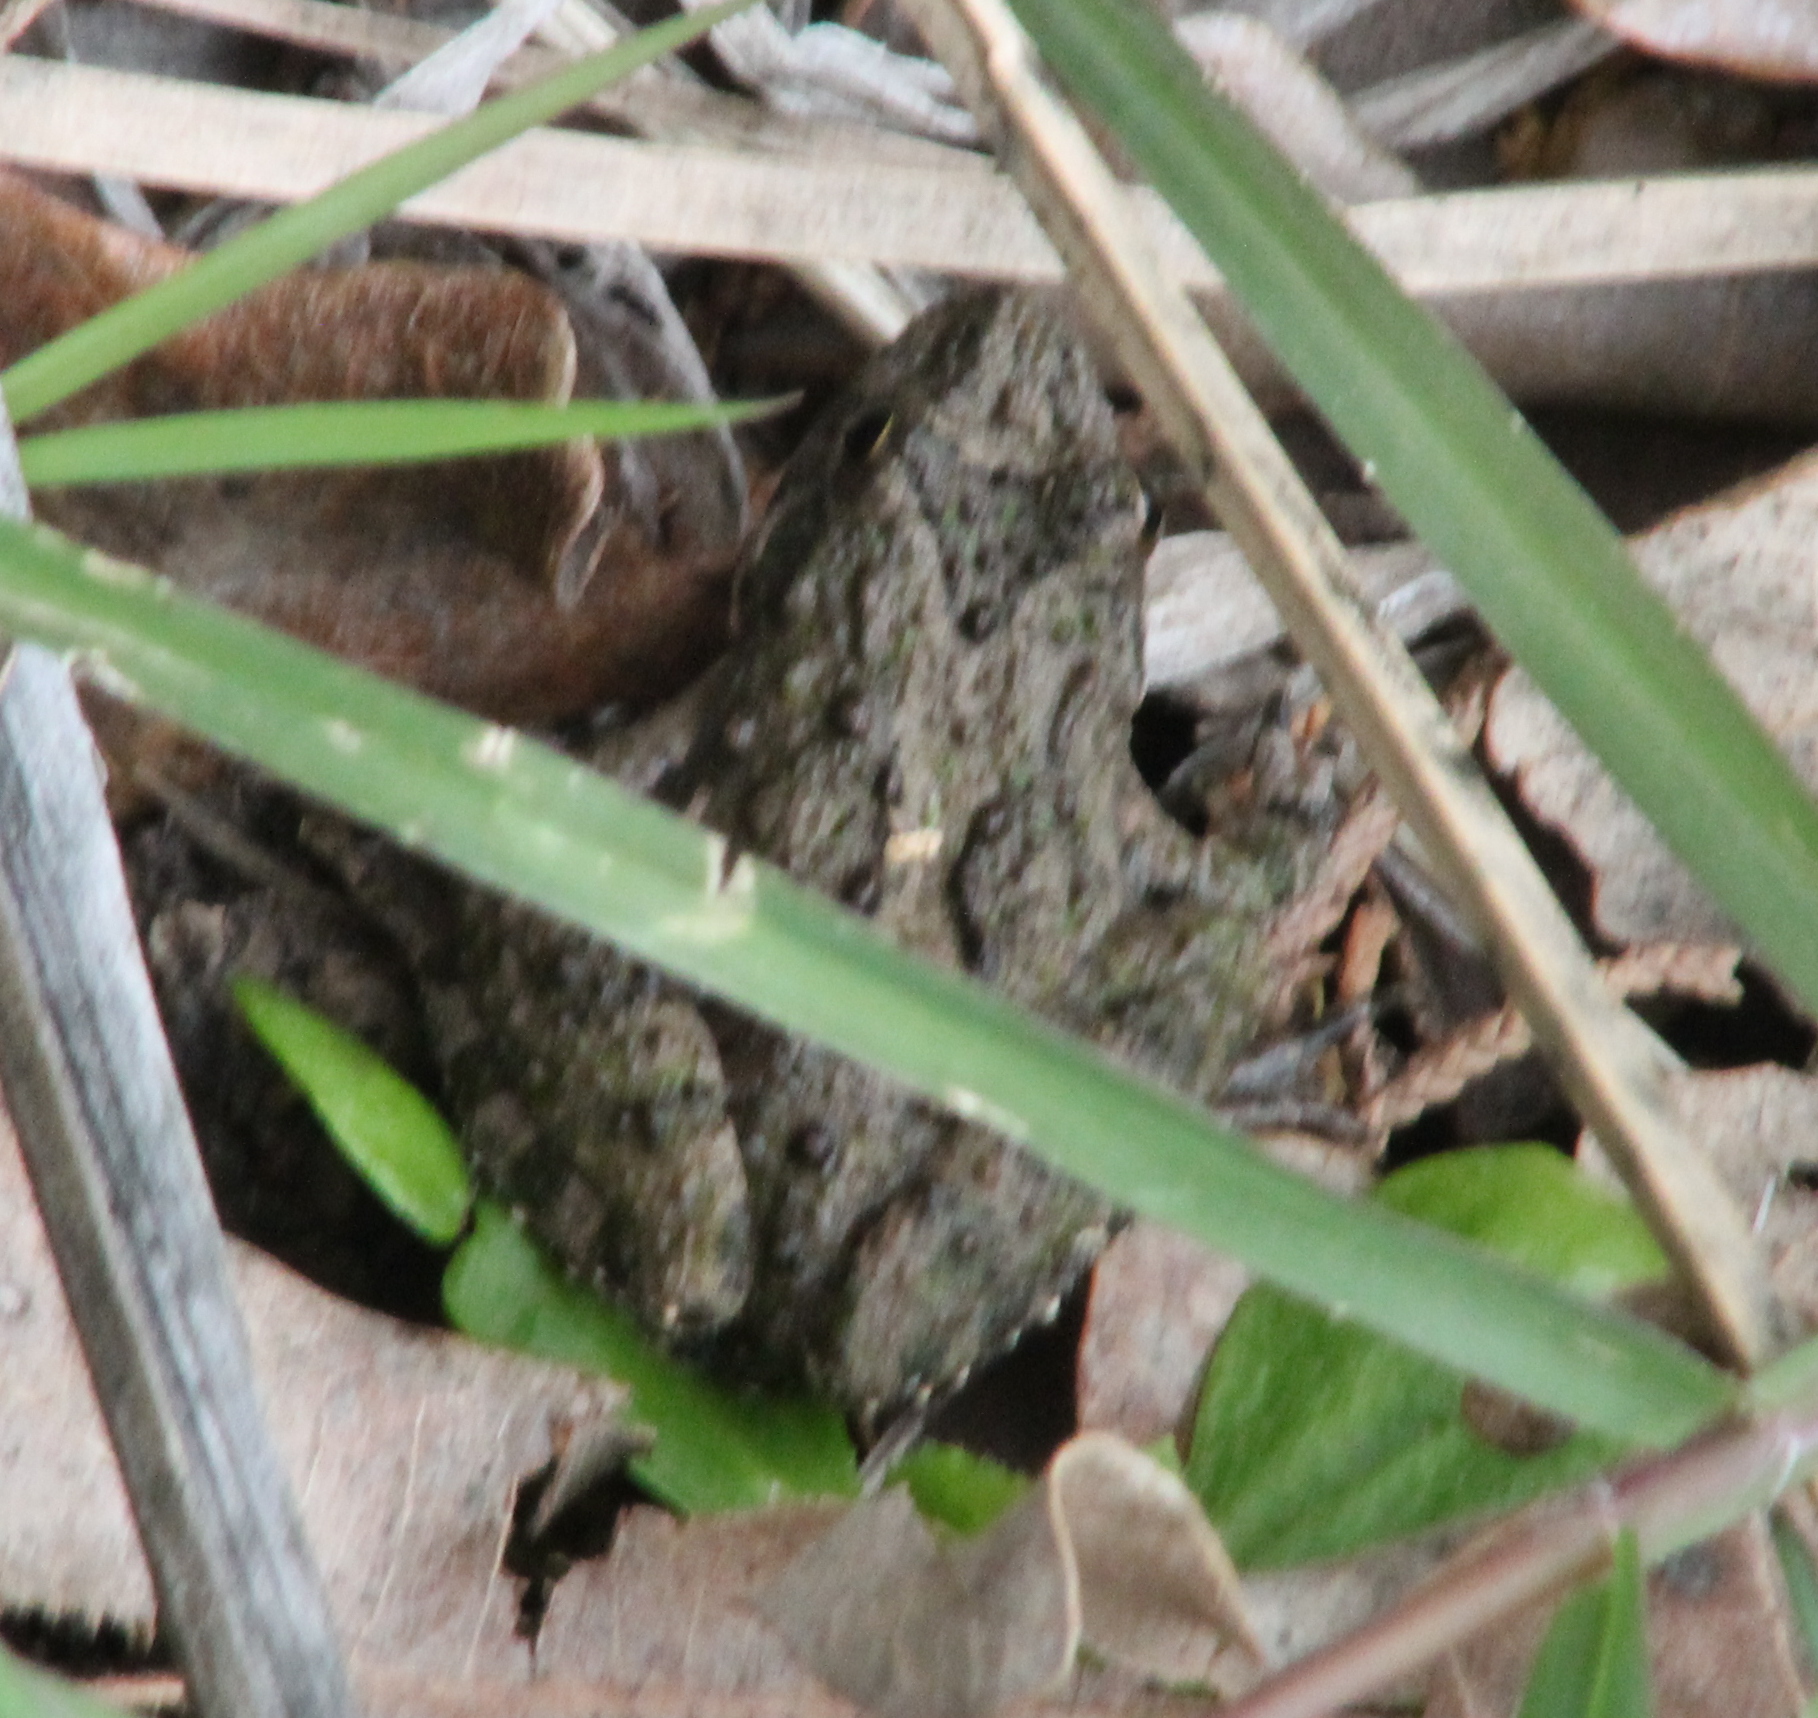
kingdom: Animalia
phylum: Chordata
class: Amphibia
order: Anura
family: Hylidae
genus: Acris
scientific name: Acris blanchardi
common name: Blanchard's cricket frog
